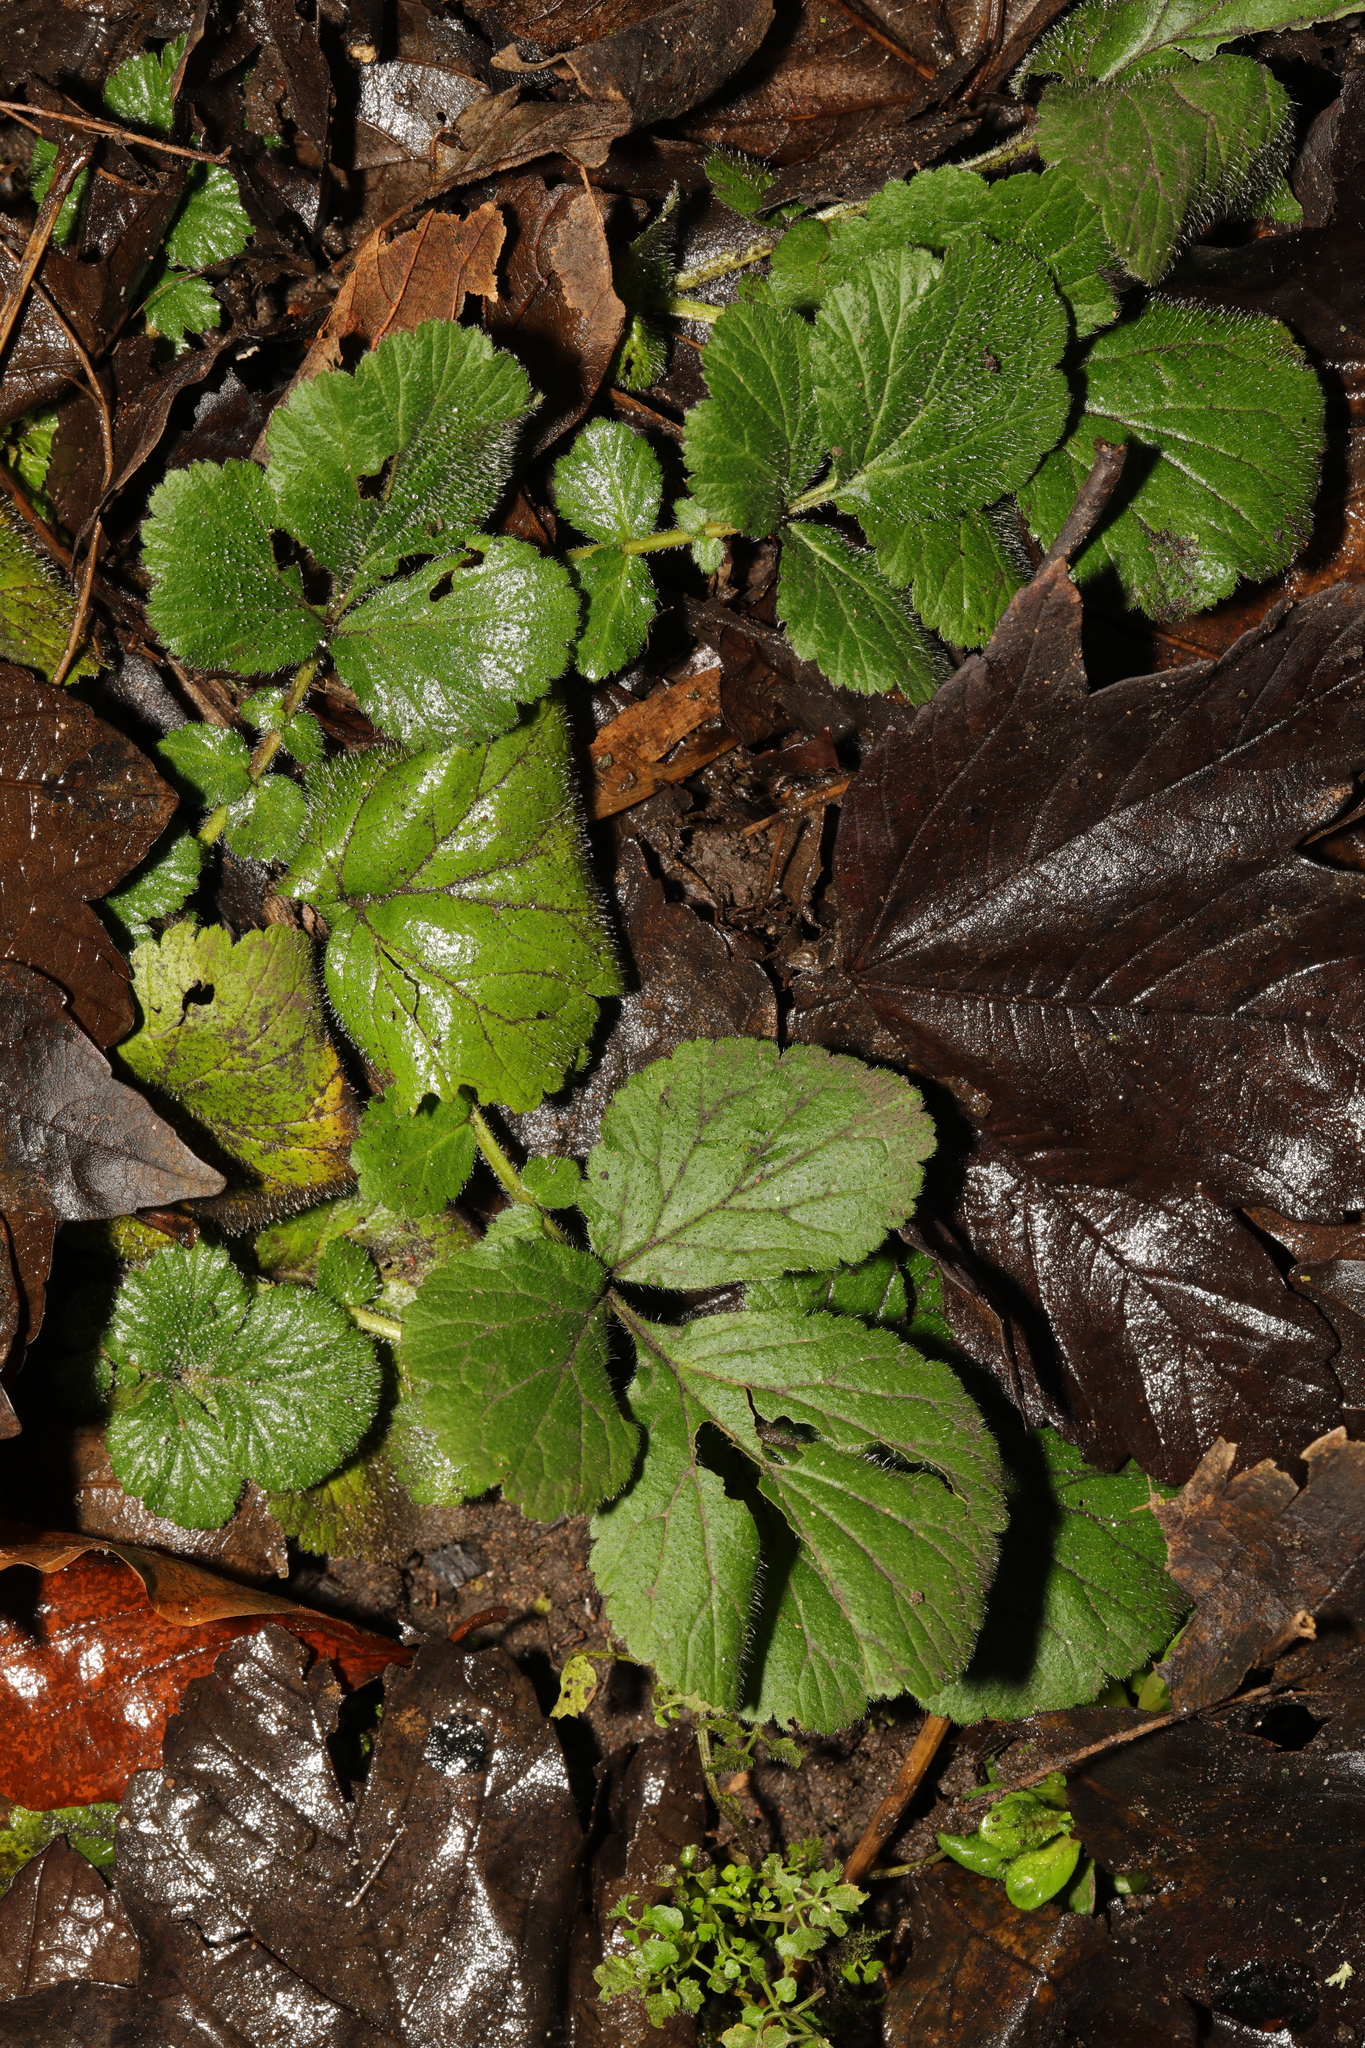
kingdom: Plantae
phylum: Tracheophyta
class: Magnoliopsida
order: Rosales
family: Rosaceae
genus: Geum
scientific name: Geum urbanum
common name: Wood avens
